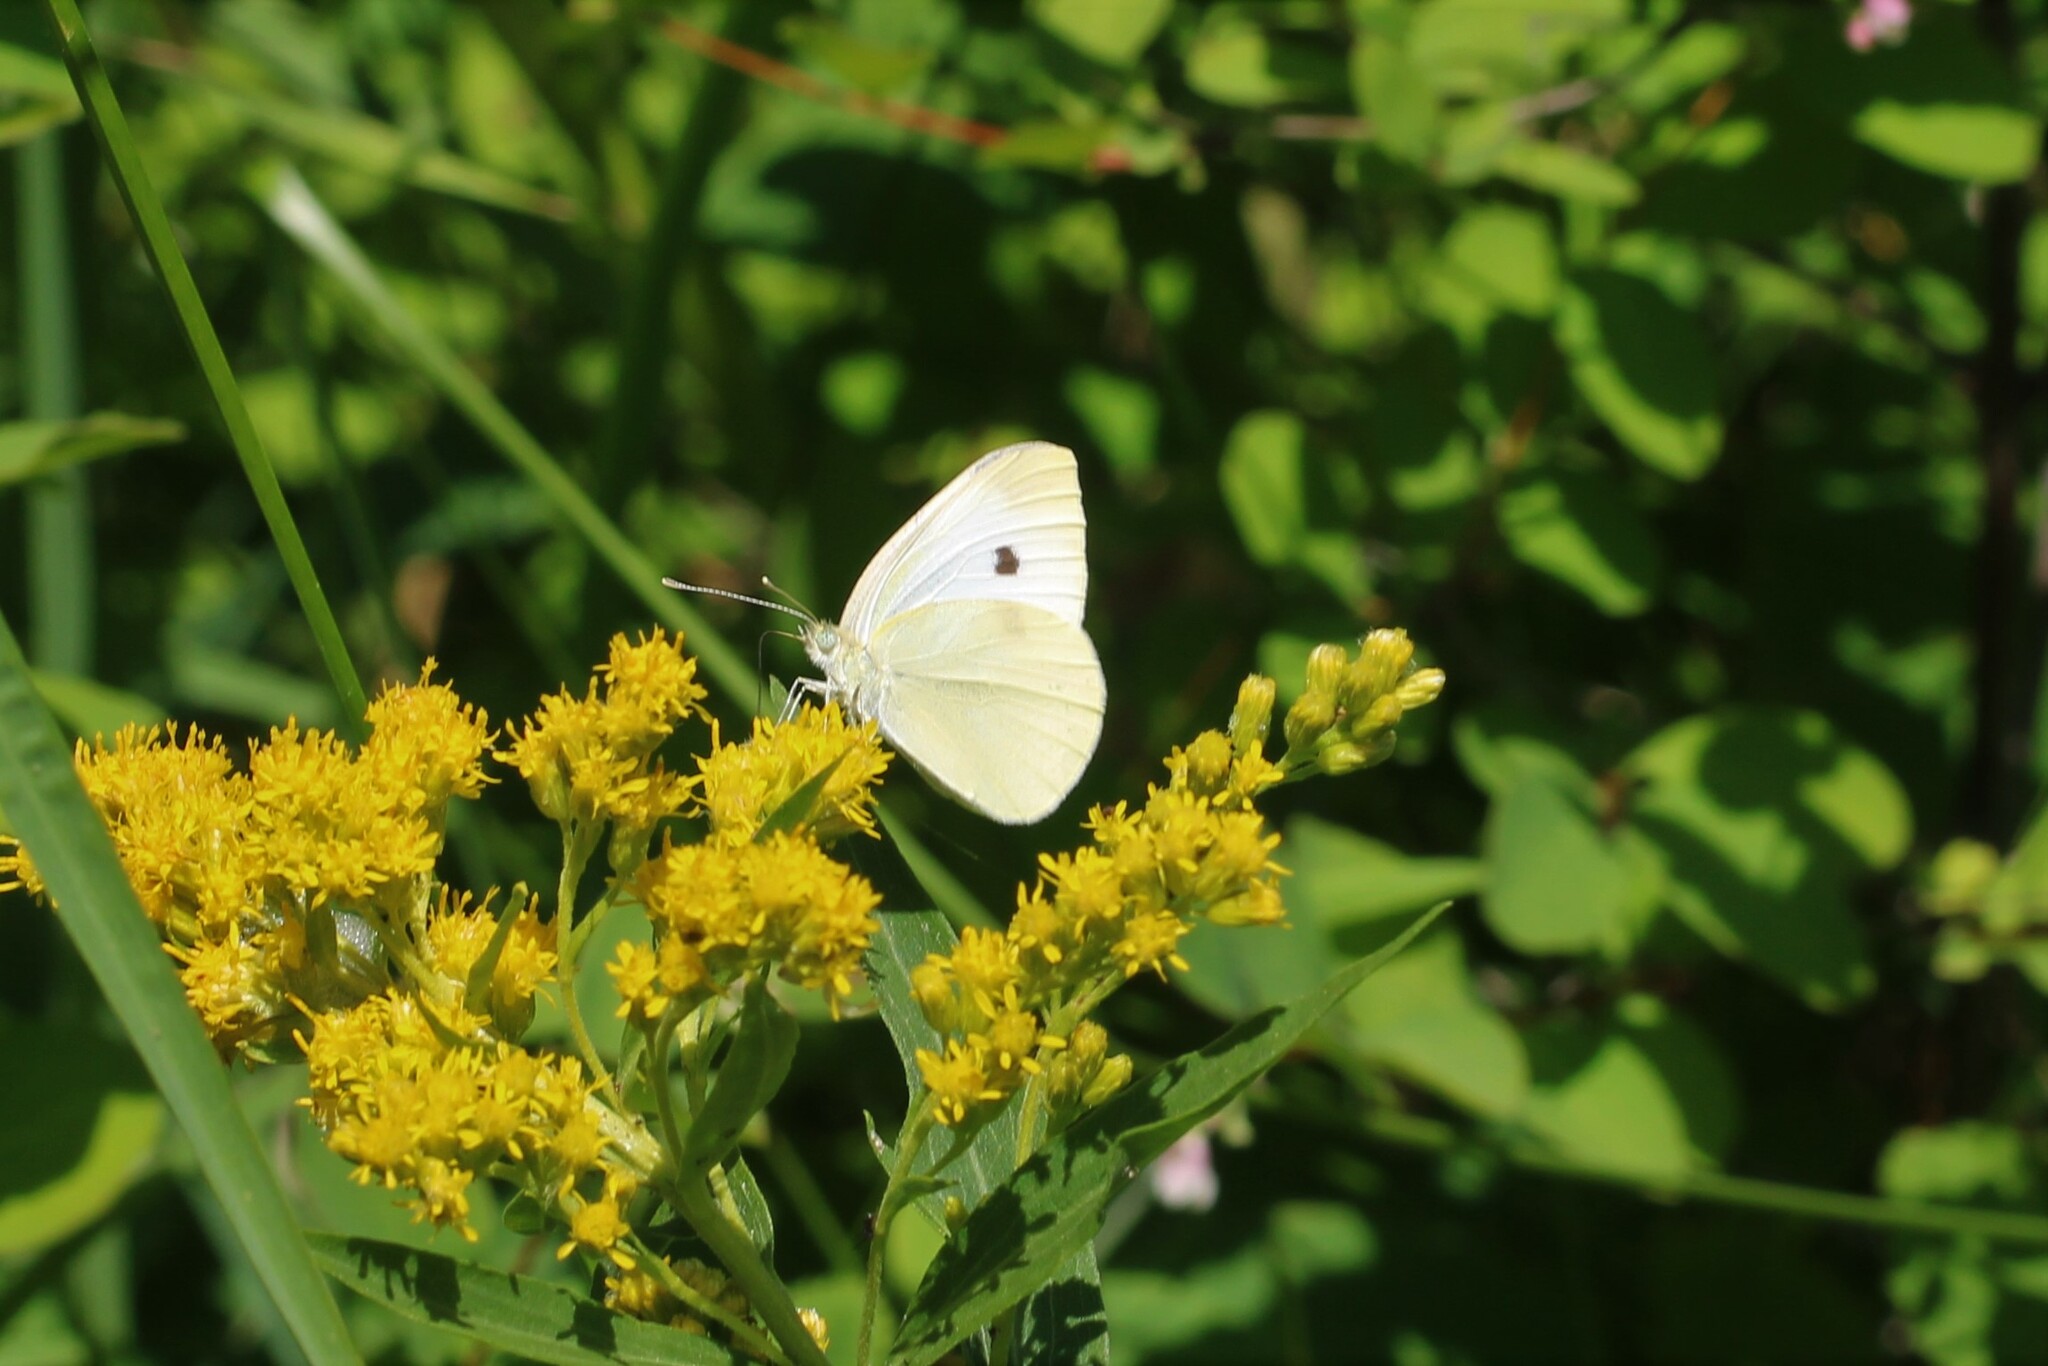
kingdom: Animalia
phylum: Arthropoda
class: Insecta
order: Lepidoptera
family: Pieridae
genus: Pieris
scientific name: Pieris rapae
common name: Small white
